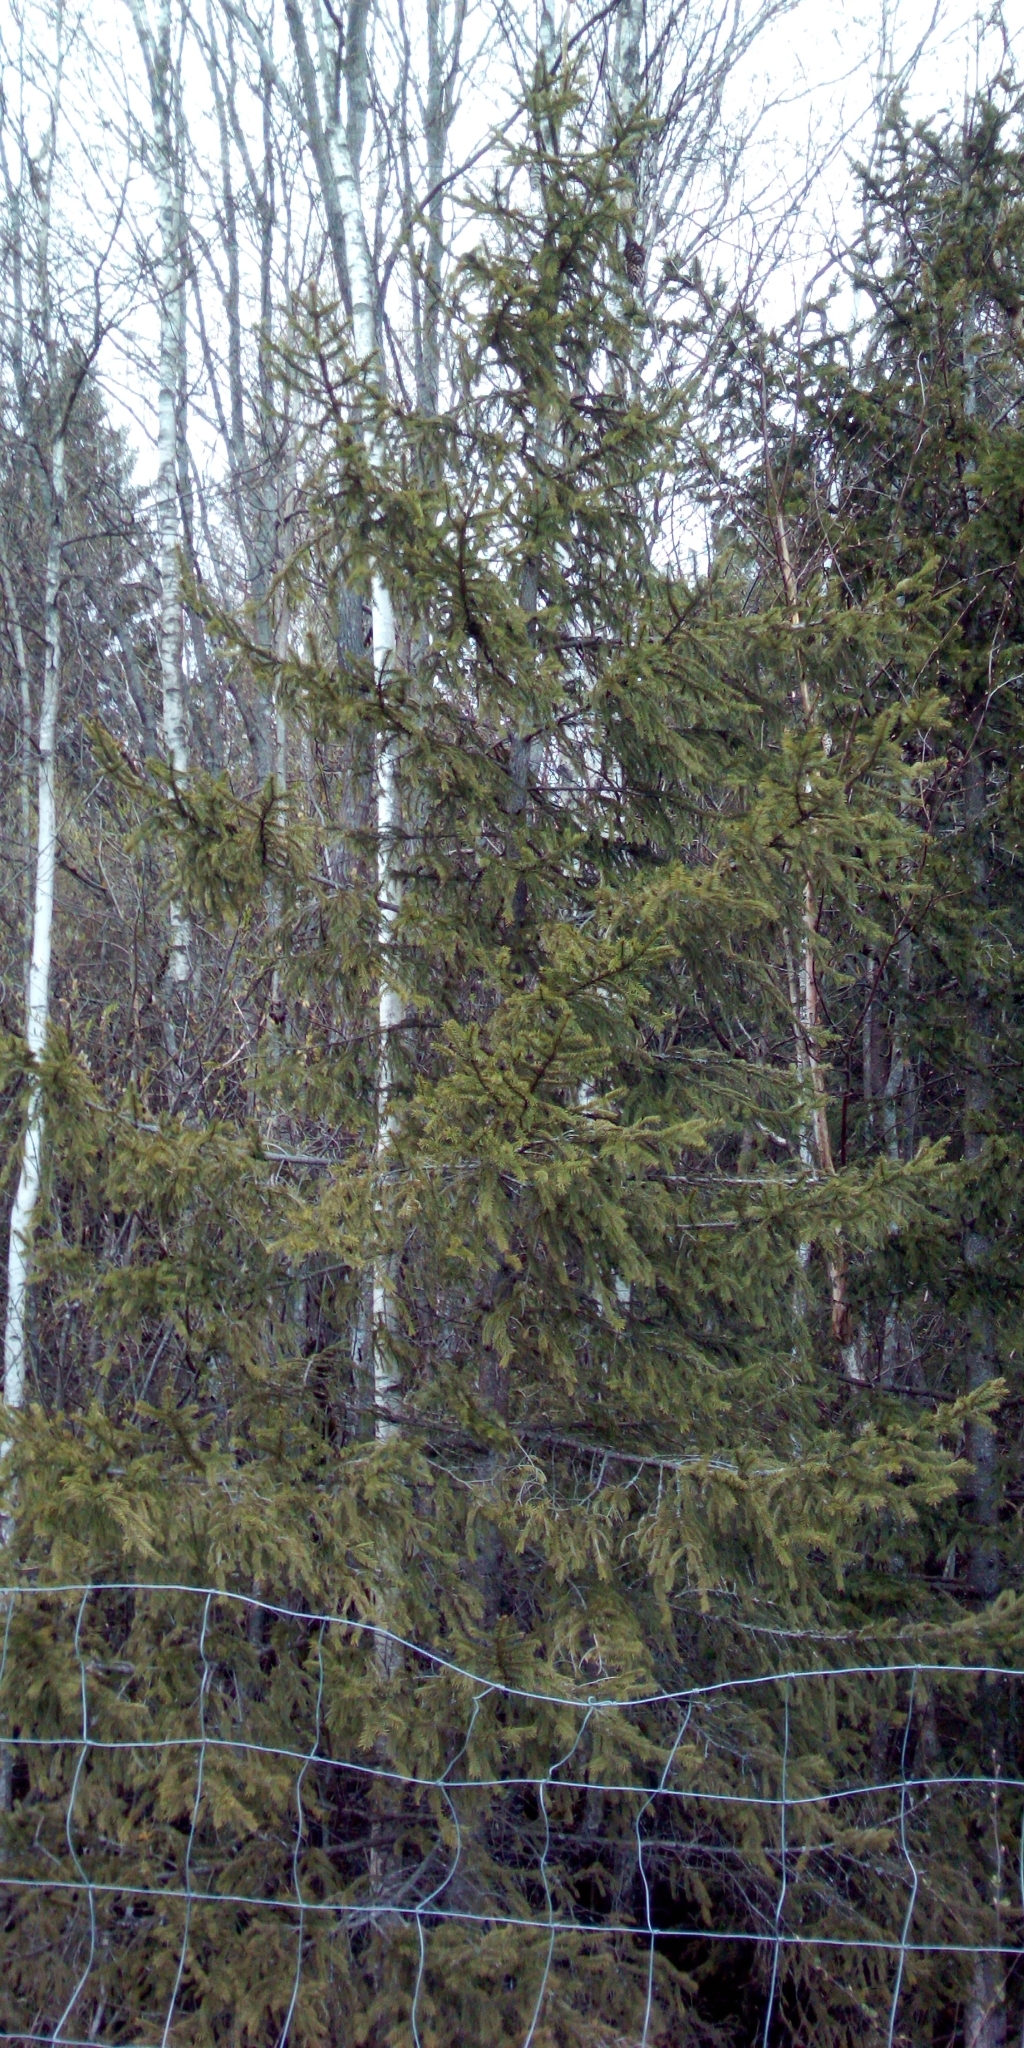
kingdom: Plantae
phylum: Tracheophyta
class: Pinopsida
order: Pinales
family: Pinaceae
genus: Picea
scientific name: Picea abies
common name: Norway spruce
